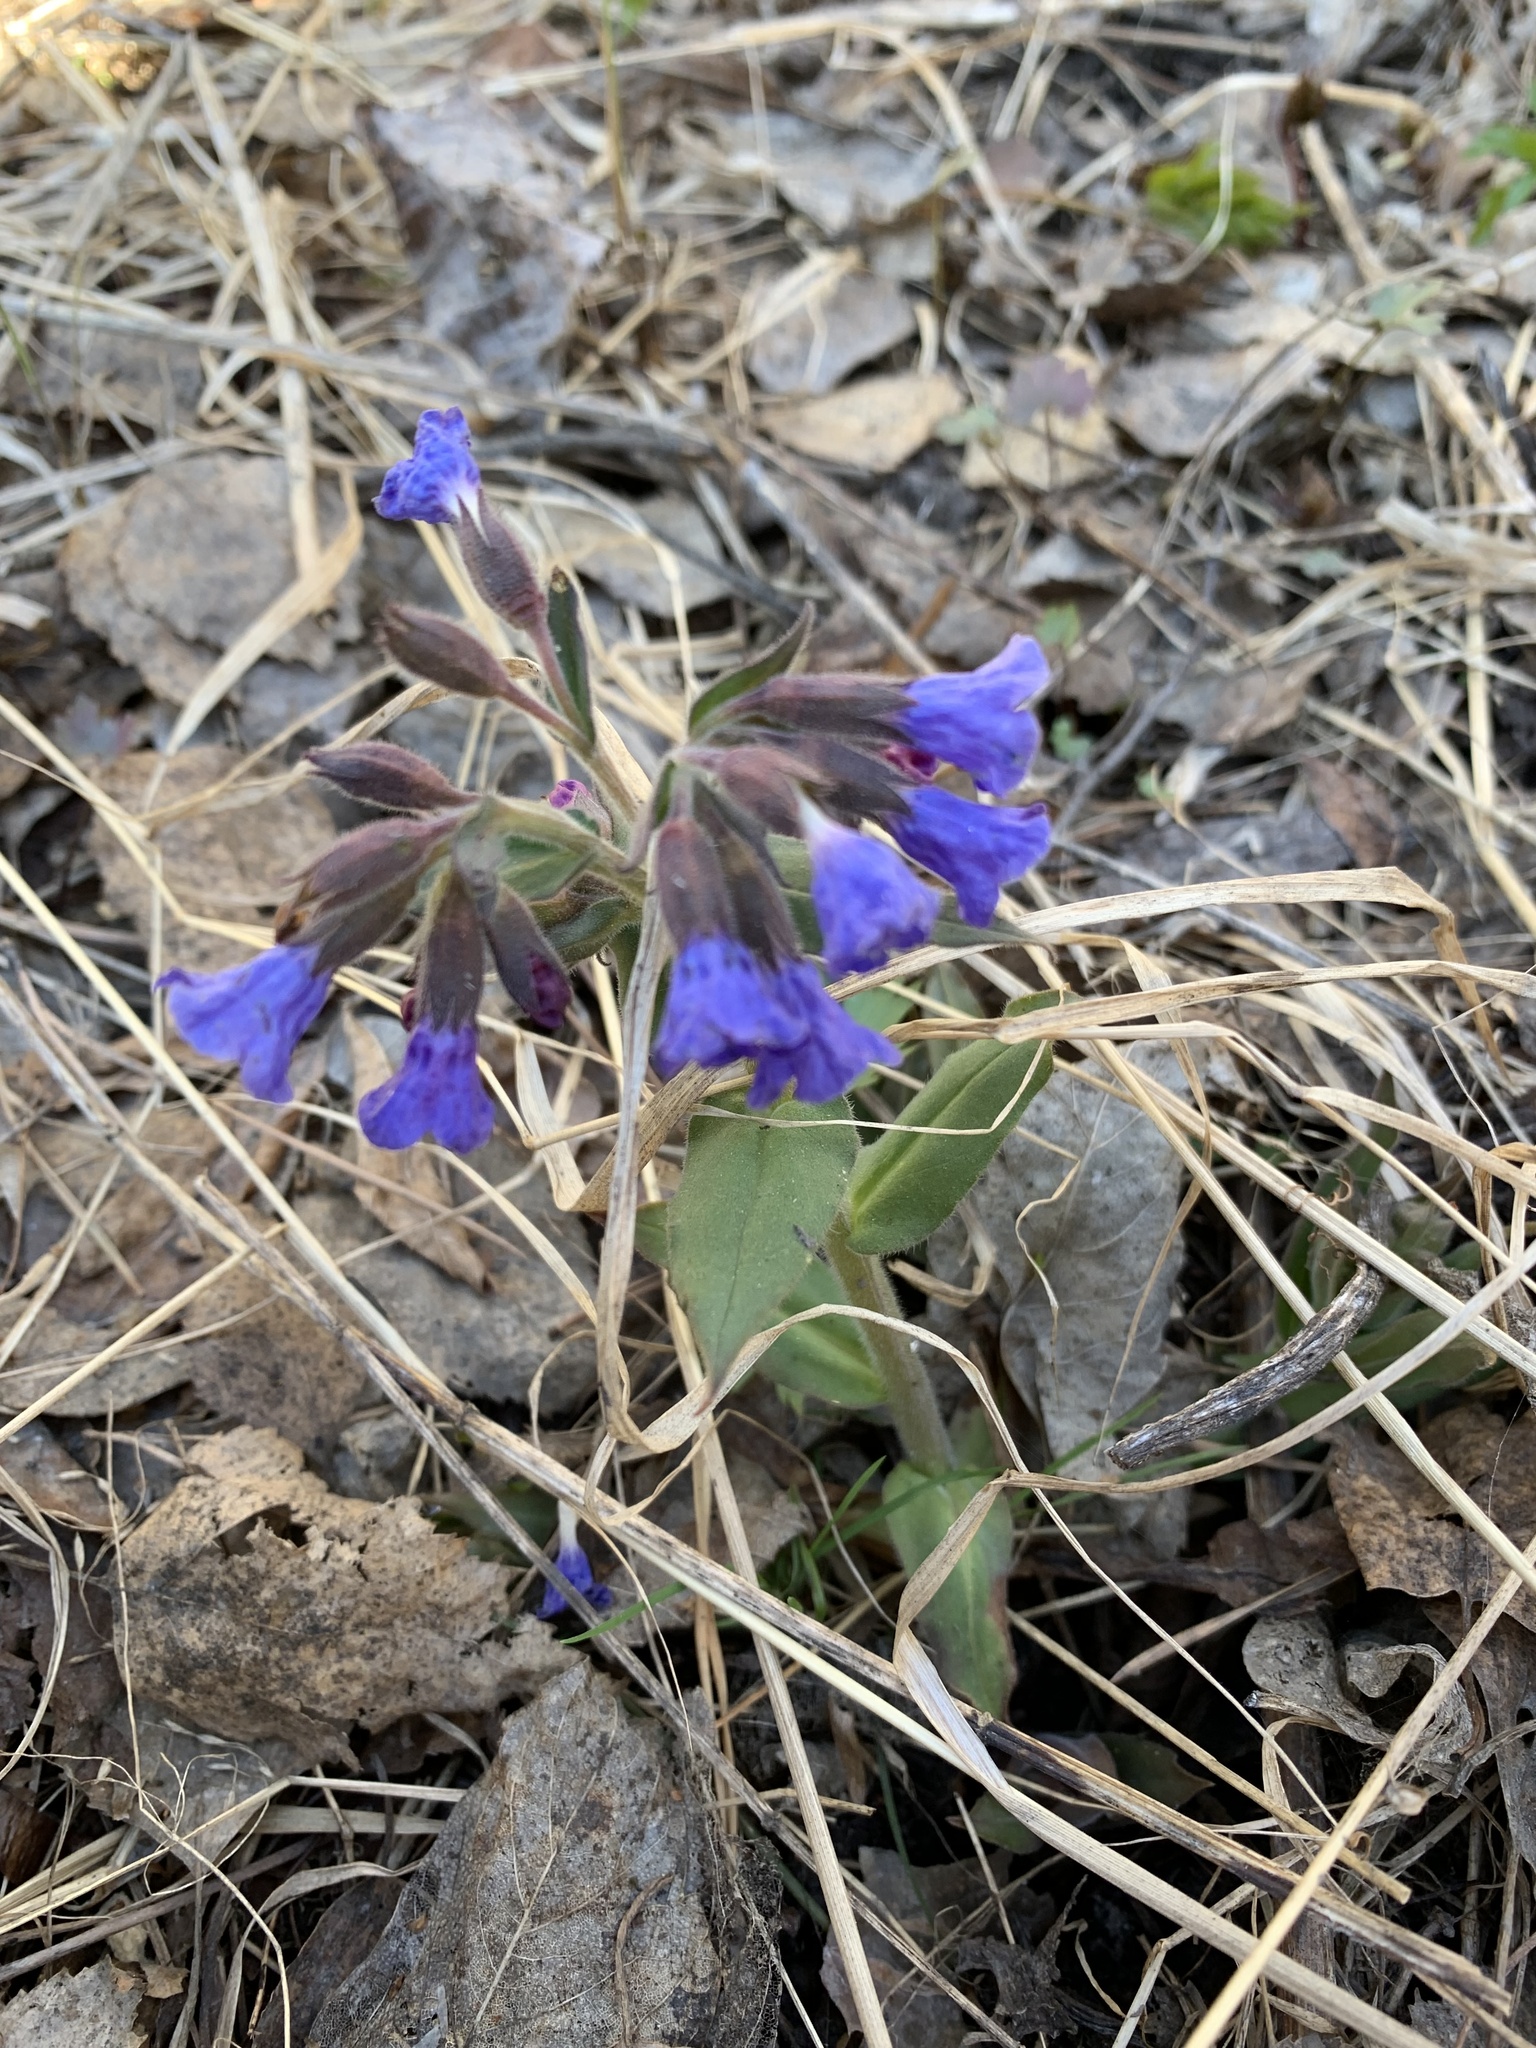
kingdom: Plantae
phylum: Tracheophyta
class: Magnoliopsida
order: Boraginales
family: Boraginaceae
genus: Pulmonaria
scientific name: Pulmonaria mollis
